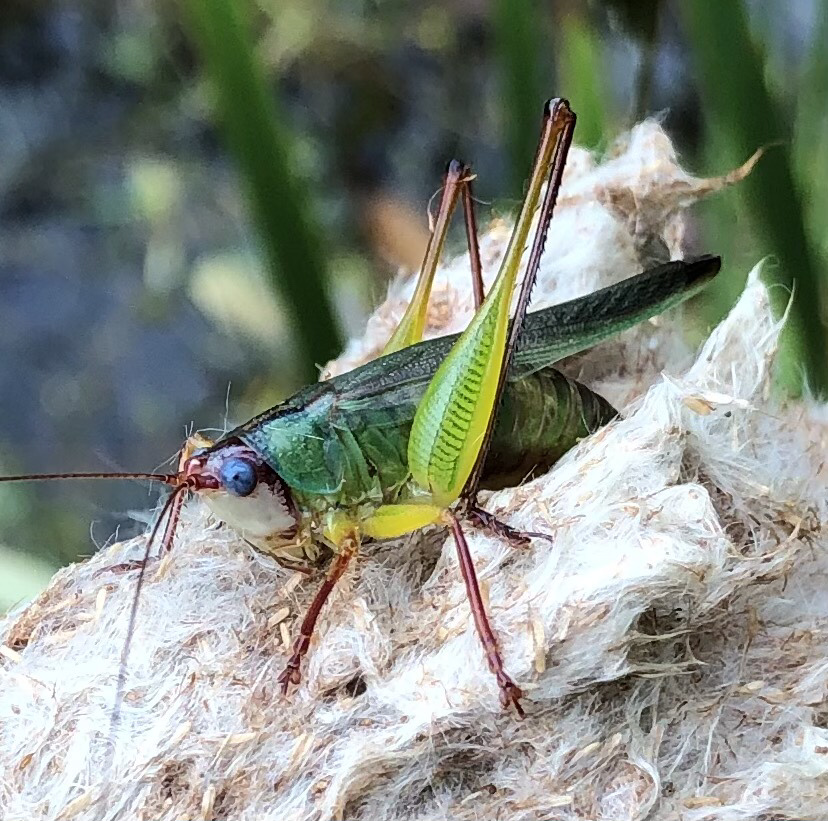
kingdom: Animalia
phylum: Arthropoda
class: Insecta
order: Orthoptera
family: Tettigoniidae
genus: Orchelimum
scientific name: Orchelimum pulchellum
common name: Handsome meadow katydid
